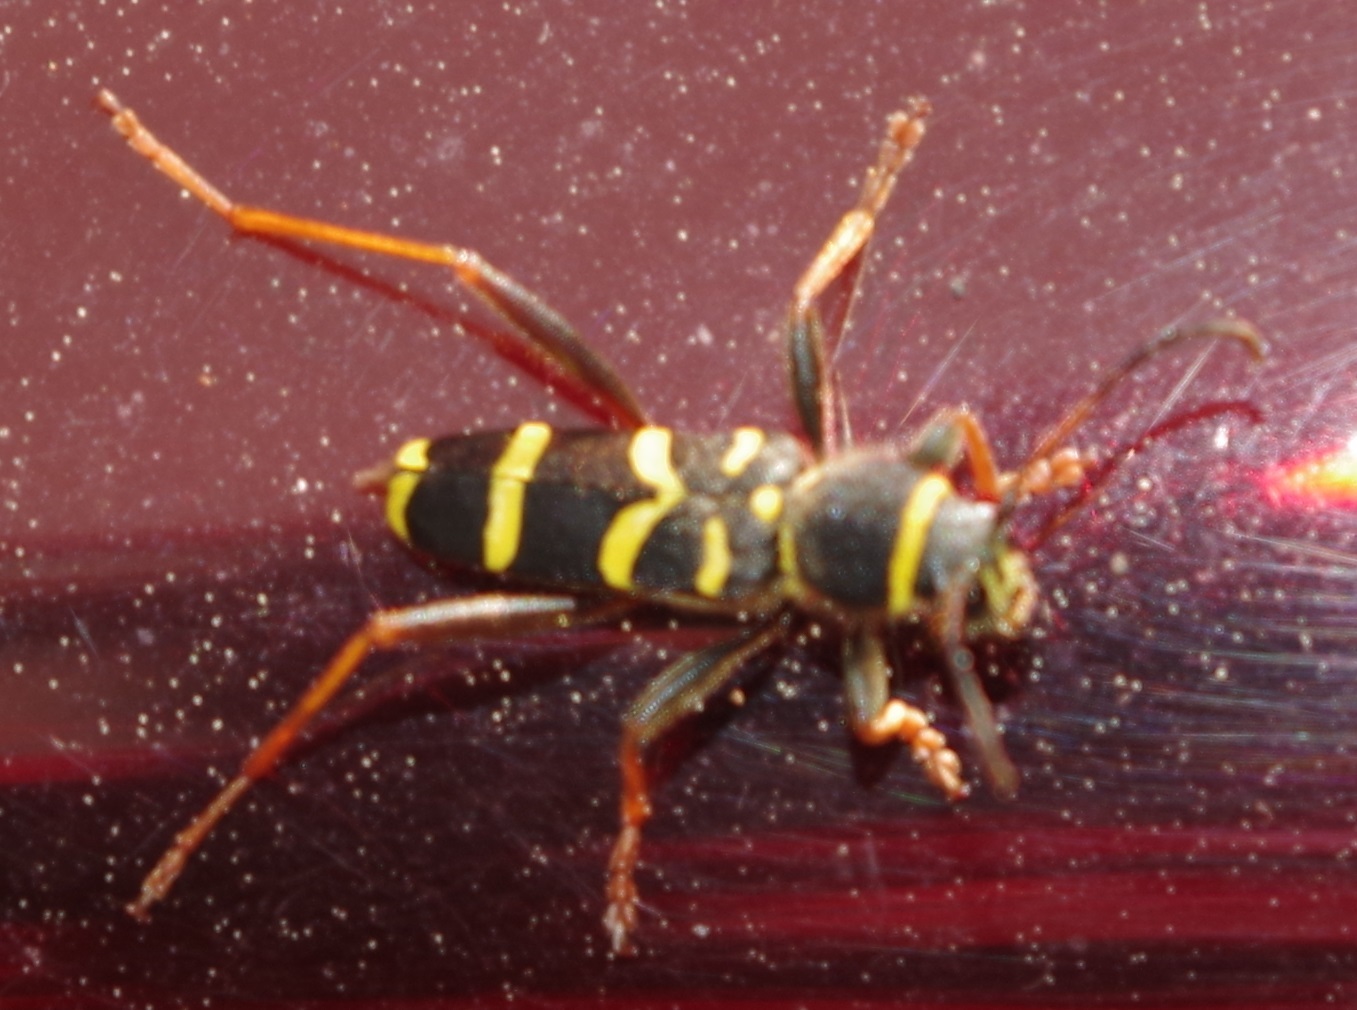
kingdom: Animalia
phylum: Arthropoda
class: Insecta
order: Coleoptera
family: Cerambycidae
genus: Clytus
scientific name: Clytus arietis
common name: Wasp beetle
